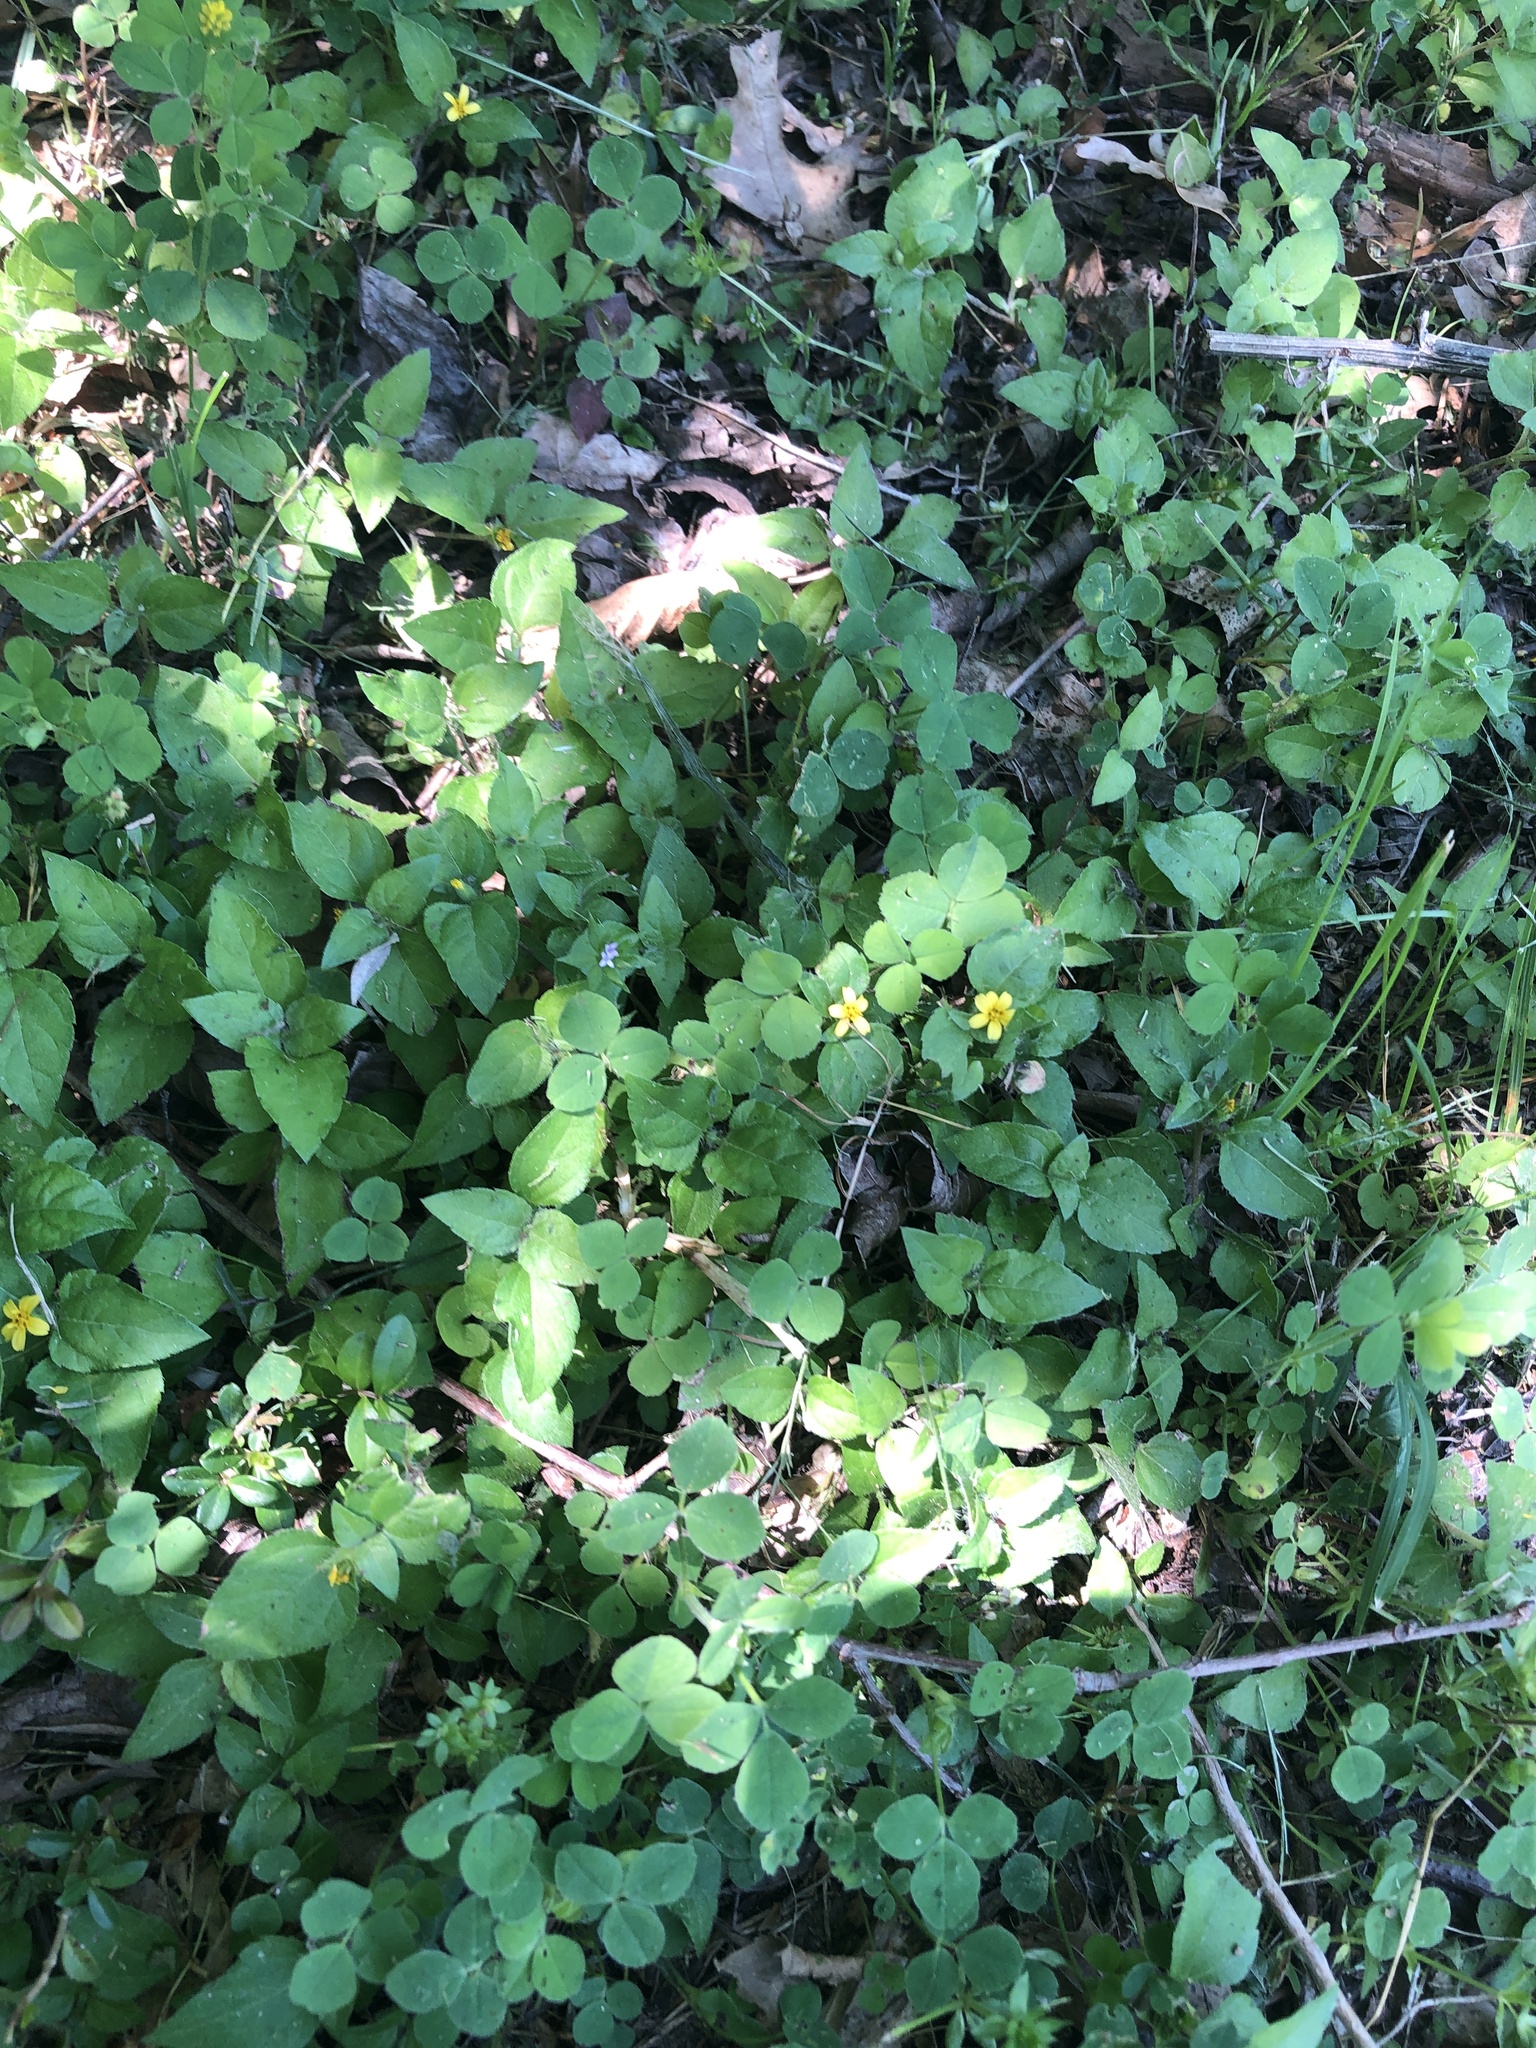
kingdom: Plantae
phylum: Tracheophyta
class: Magnoliopsida
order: Asterales
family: Asteraceae
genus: Calyptocarpus
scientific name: Calyptocarpus vialis
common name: Straggler daisy
